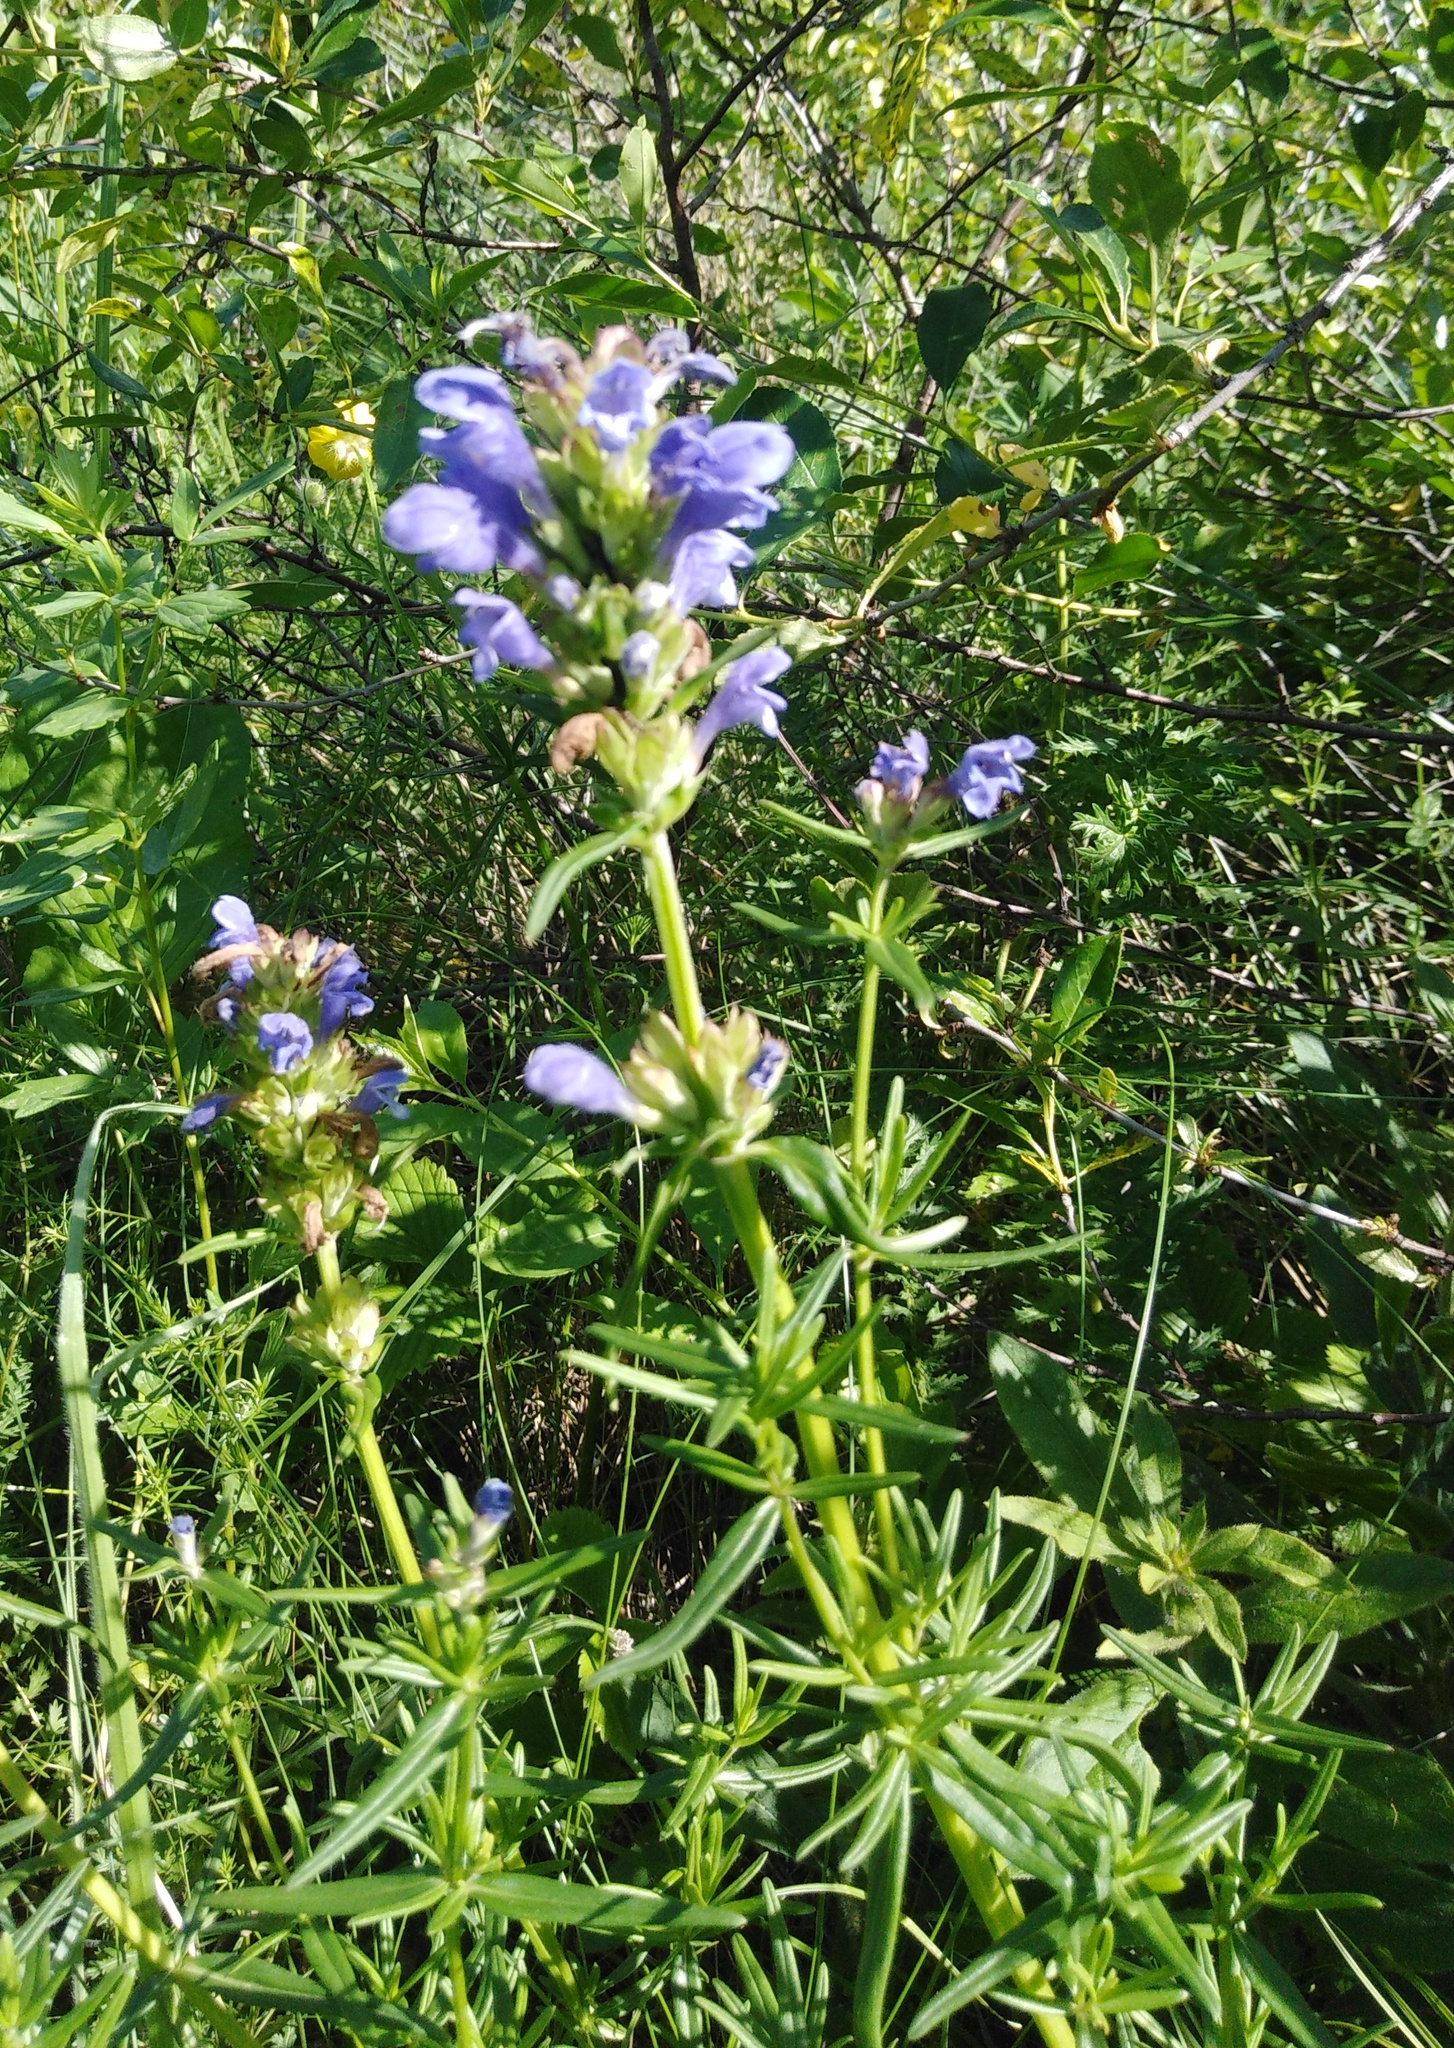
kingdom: Plantae
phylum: Tracheophyta
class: Magnoliopsida
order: Lamiales
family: Lamiaceae
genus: Dracocephalum
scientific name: Dracocephalum ruyschiana
